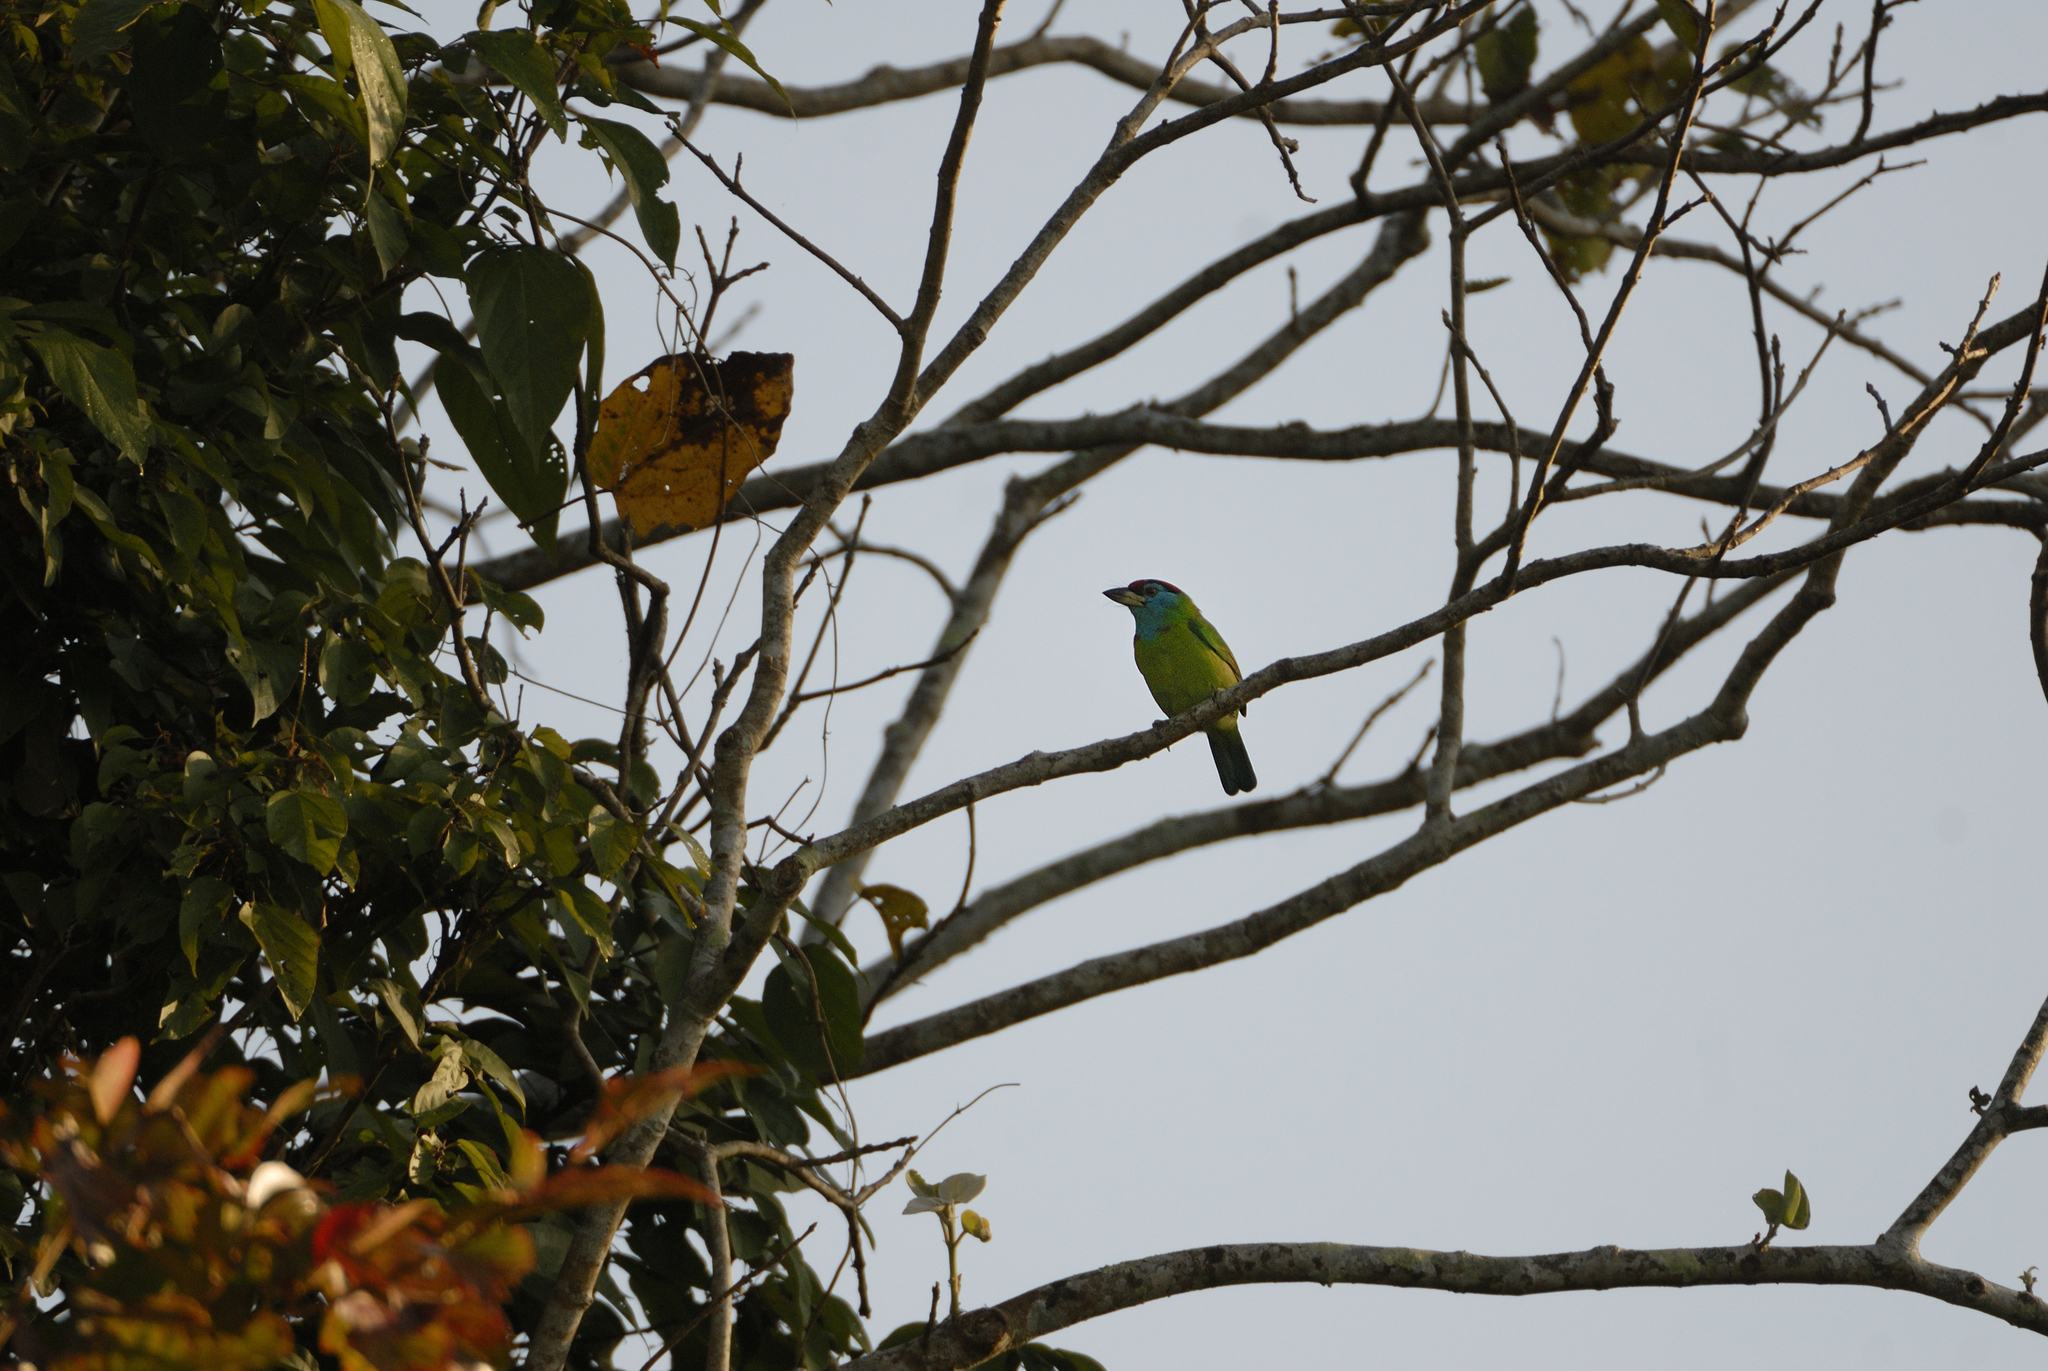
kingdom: Animalia
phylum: Chordata
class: Aves
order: Piciformes
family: Megalaimidae
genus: Psilopogon
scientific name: Psilopogon asiaticus
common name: Blue-throated barbet
